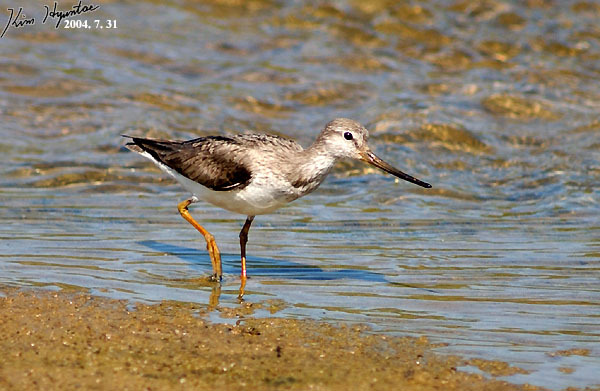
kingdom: Animalia
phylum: Chordata
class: Aves
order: Charadriiformes
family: Scolopacidae
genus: Xenus
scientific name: Xenus cinereus
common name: Terek sandpiper
